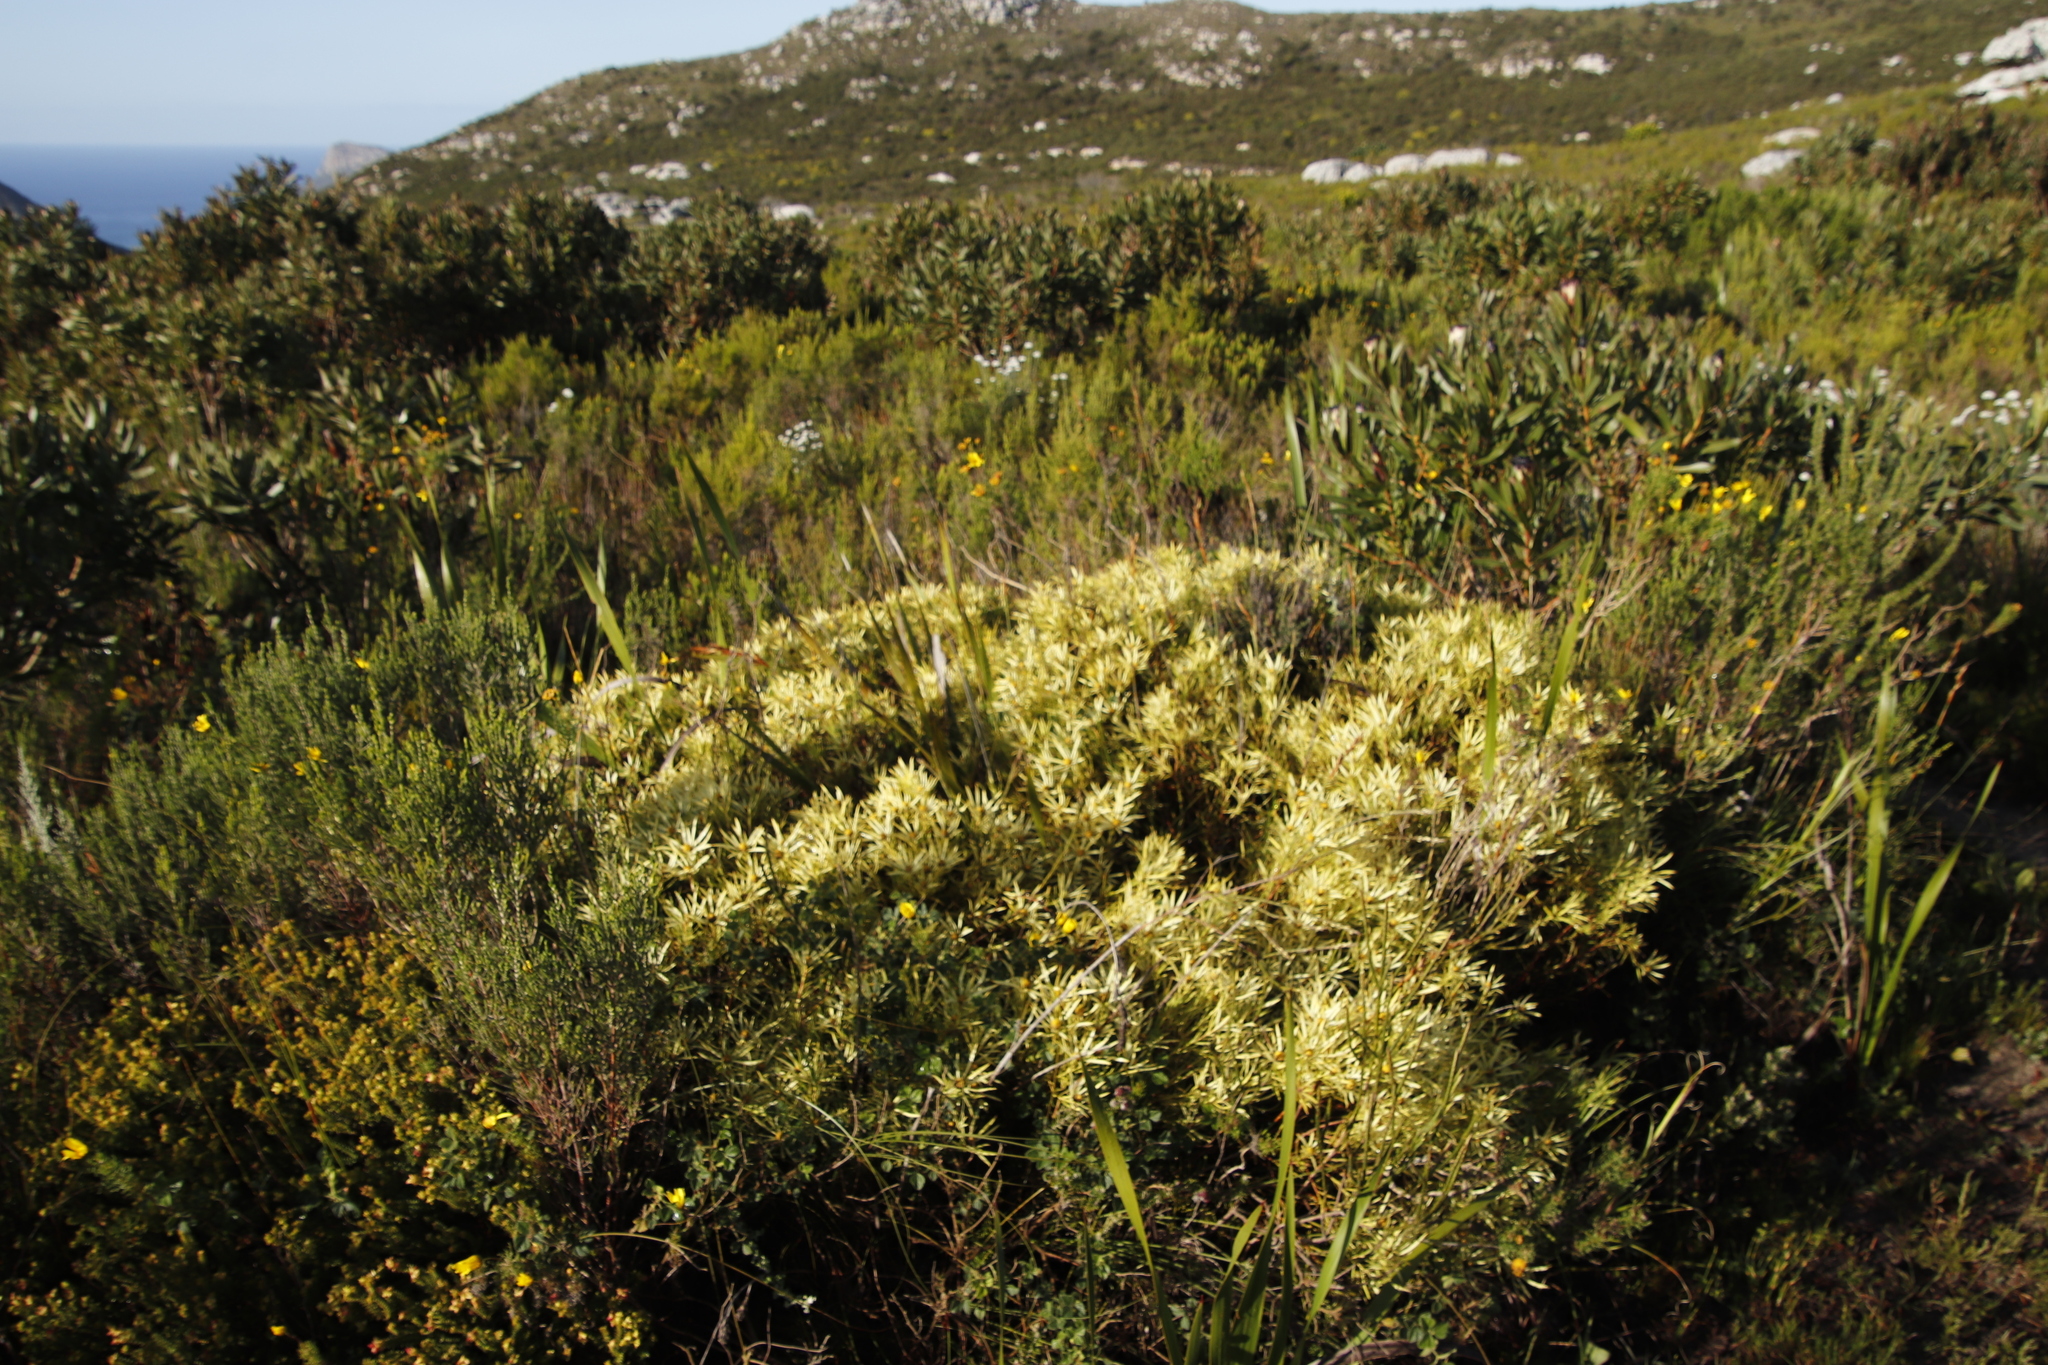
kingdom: Plantae
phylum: Tracheophyta
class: Magnoliopsida
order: Proteales
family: Proteaceae
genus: Leucadendron
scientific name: Leucadendron salignum
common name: Common sunshine conebush
